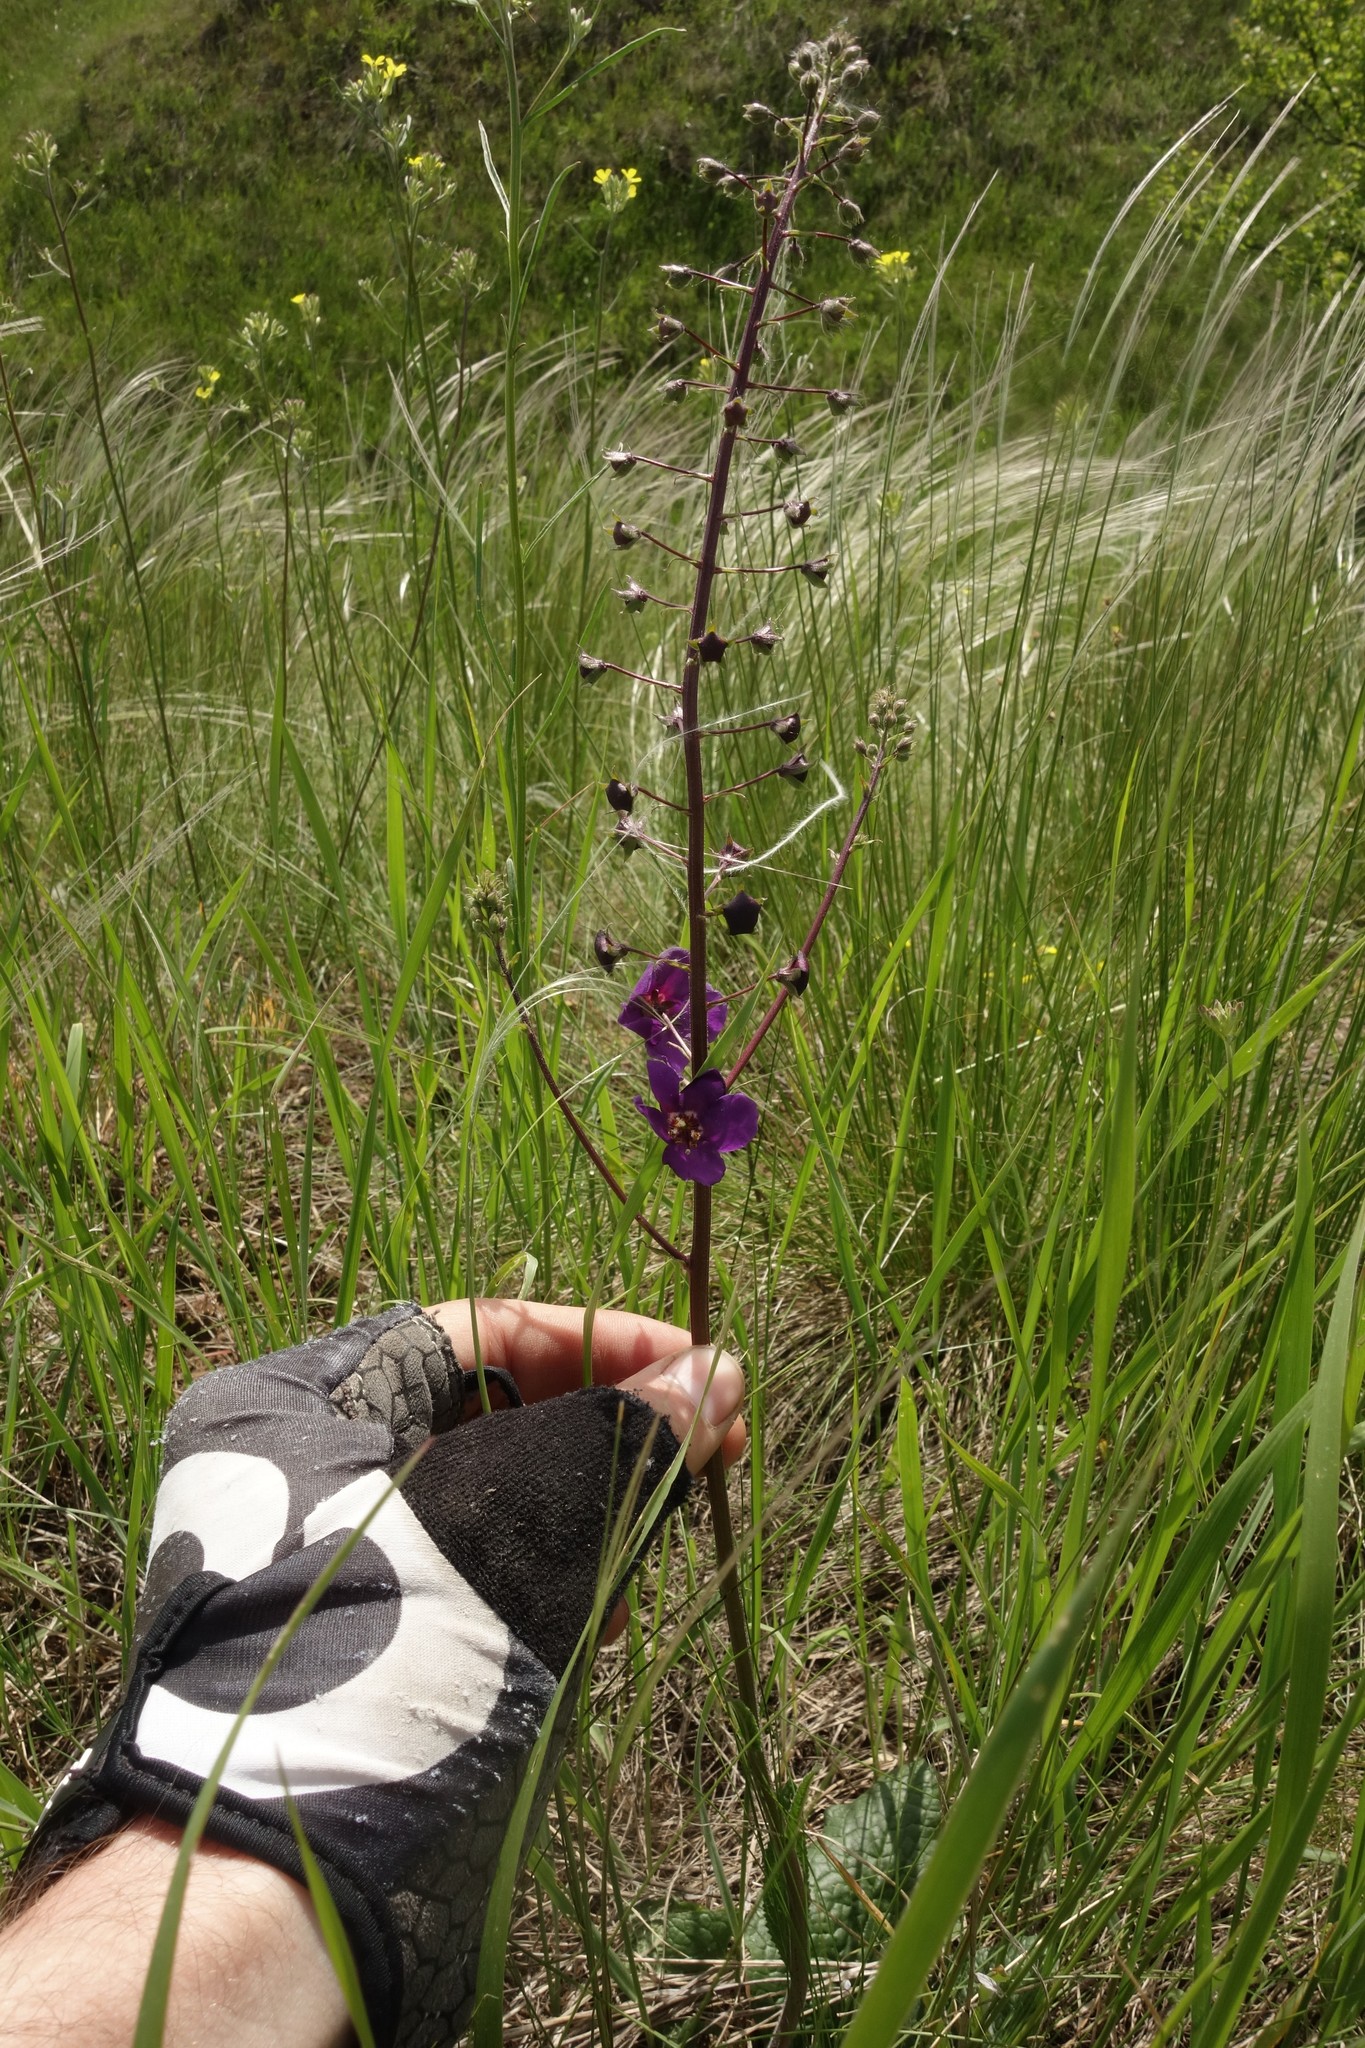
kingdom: Plantae
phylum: Tracheophyta
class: Magnoliopsida
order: Lamiales
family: Scrophulariaceae
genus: Verbascum
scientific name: Verbascum phoeniceum
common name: Purple mullein
